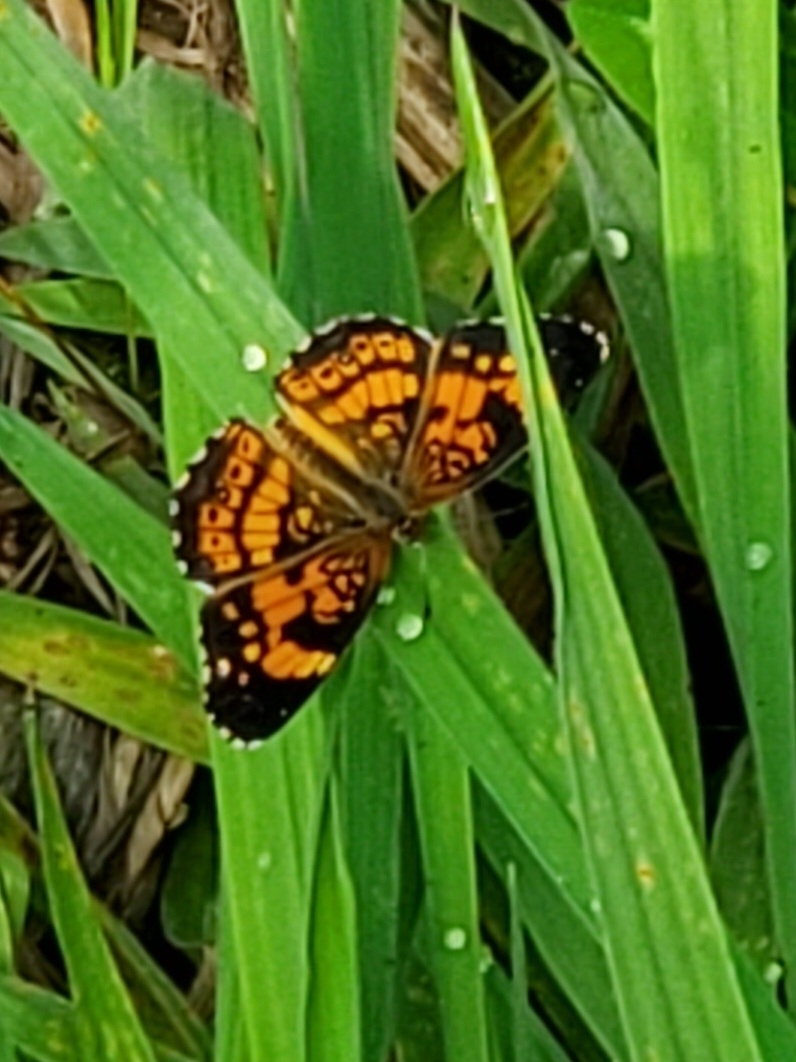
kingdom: Animalia
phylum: Arthropoda
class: Insecta
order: Lepidoptera
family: Nymphalidae
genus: Chlosyne
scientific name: Chlosyne nycteis
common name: Silvery checkerspot
